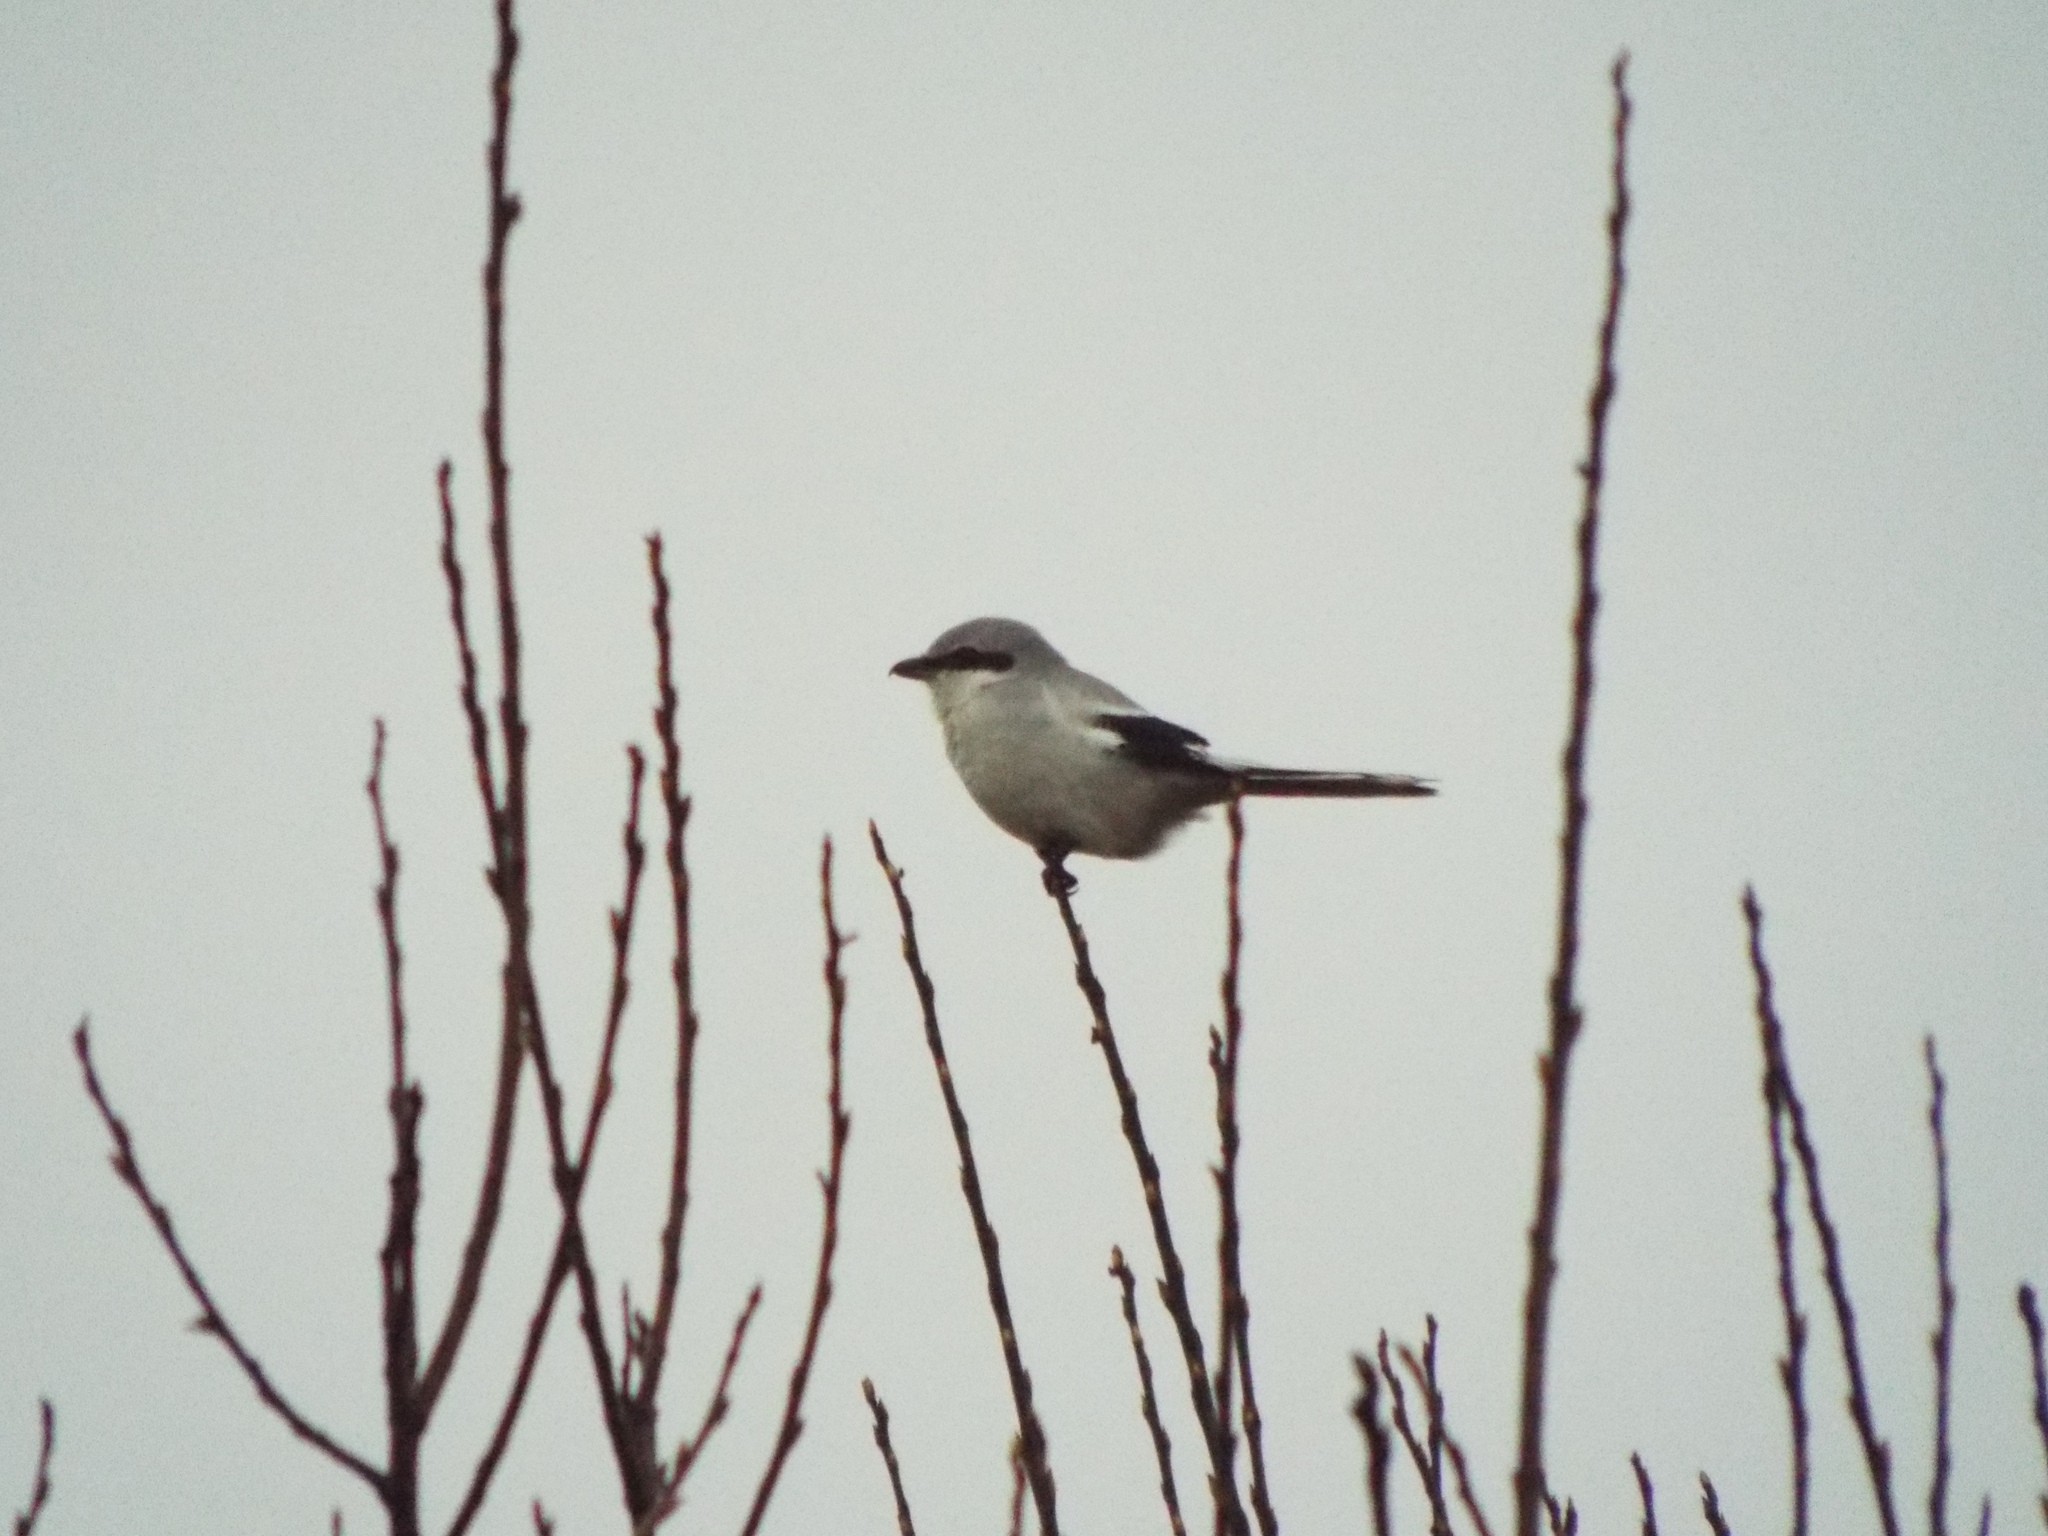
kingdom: Animalia
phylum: Chordata
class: Aves
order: Passeriformes
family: Laniidae
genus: Lanius
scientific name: Lanius excubitor
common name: Great grey shrike
